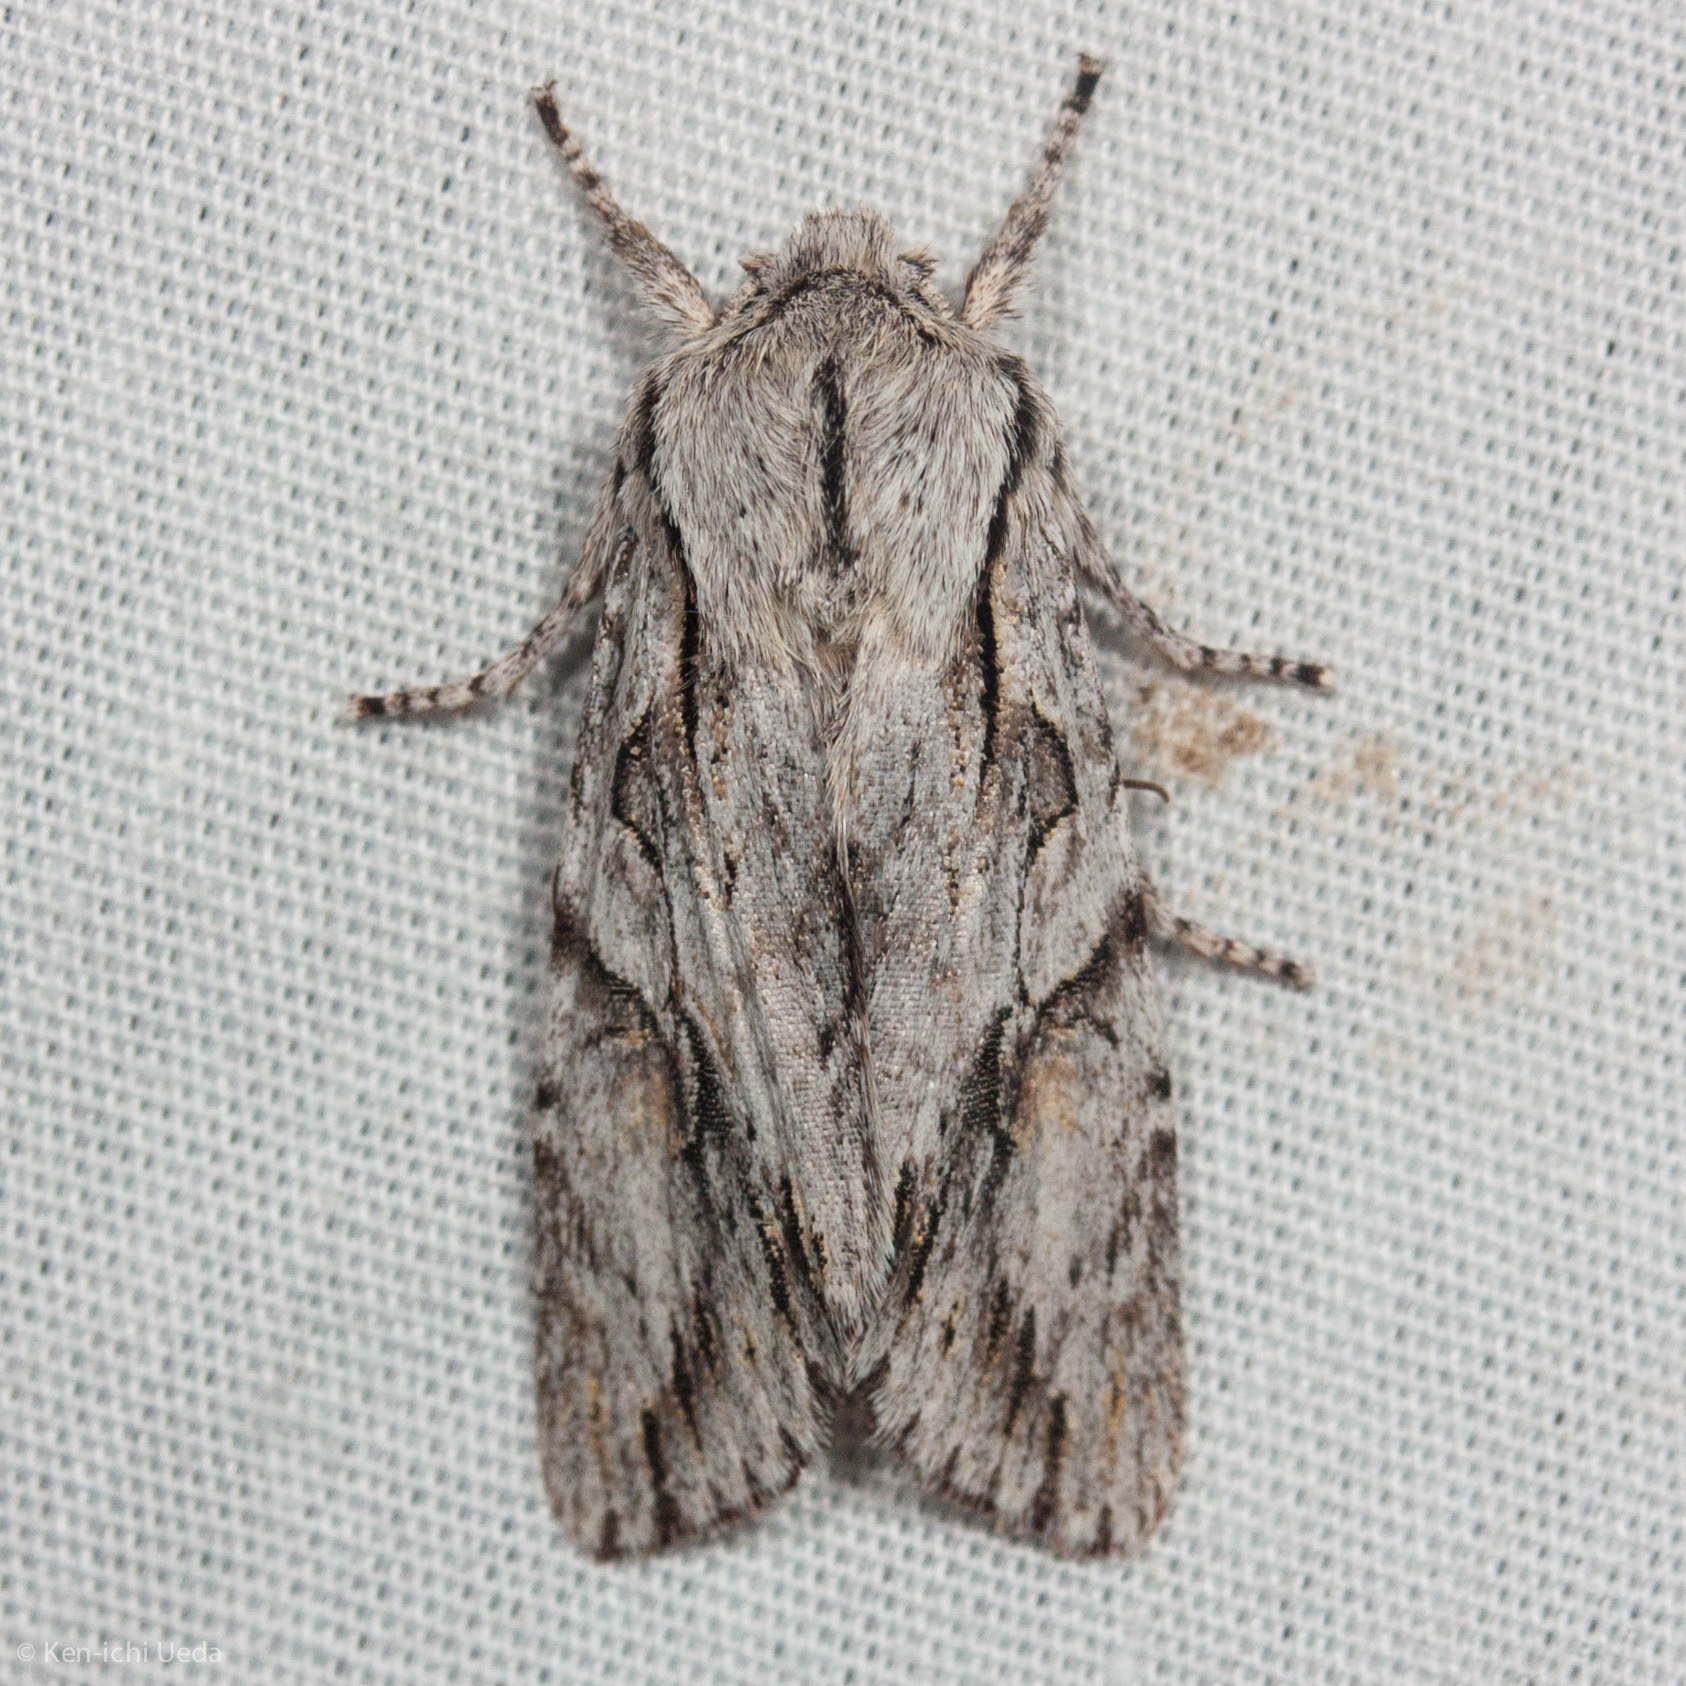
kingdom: Animalia
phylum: Arthropoda
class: Insecta
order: Lepidoptera
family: Noctuidae
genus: Egira
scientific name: Egira crucialis
